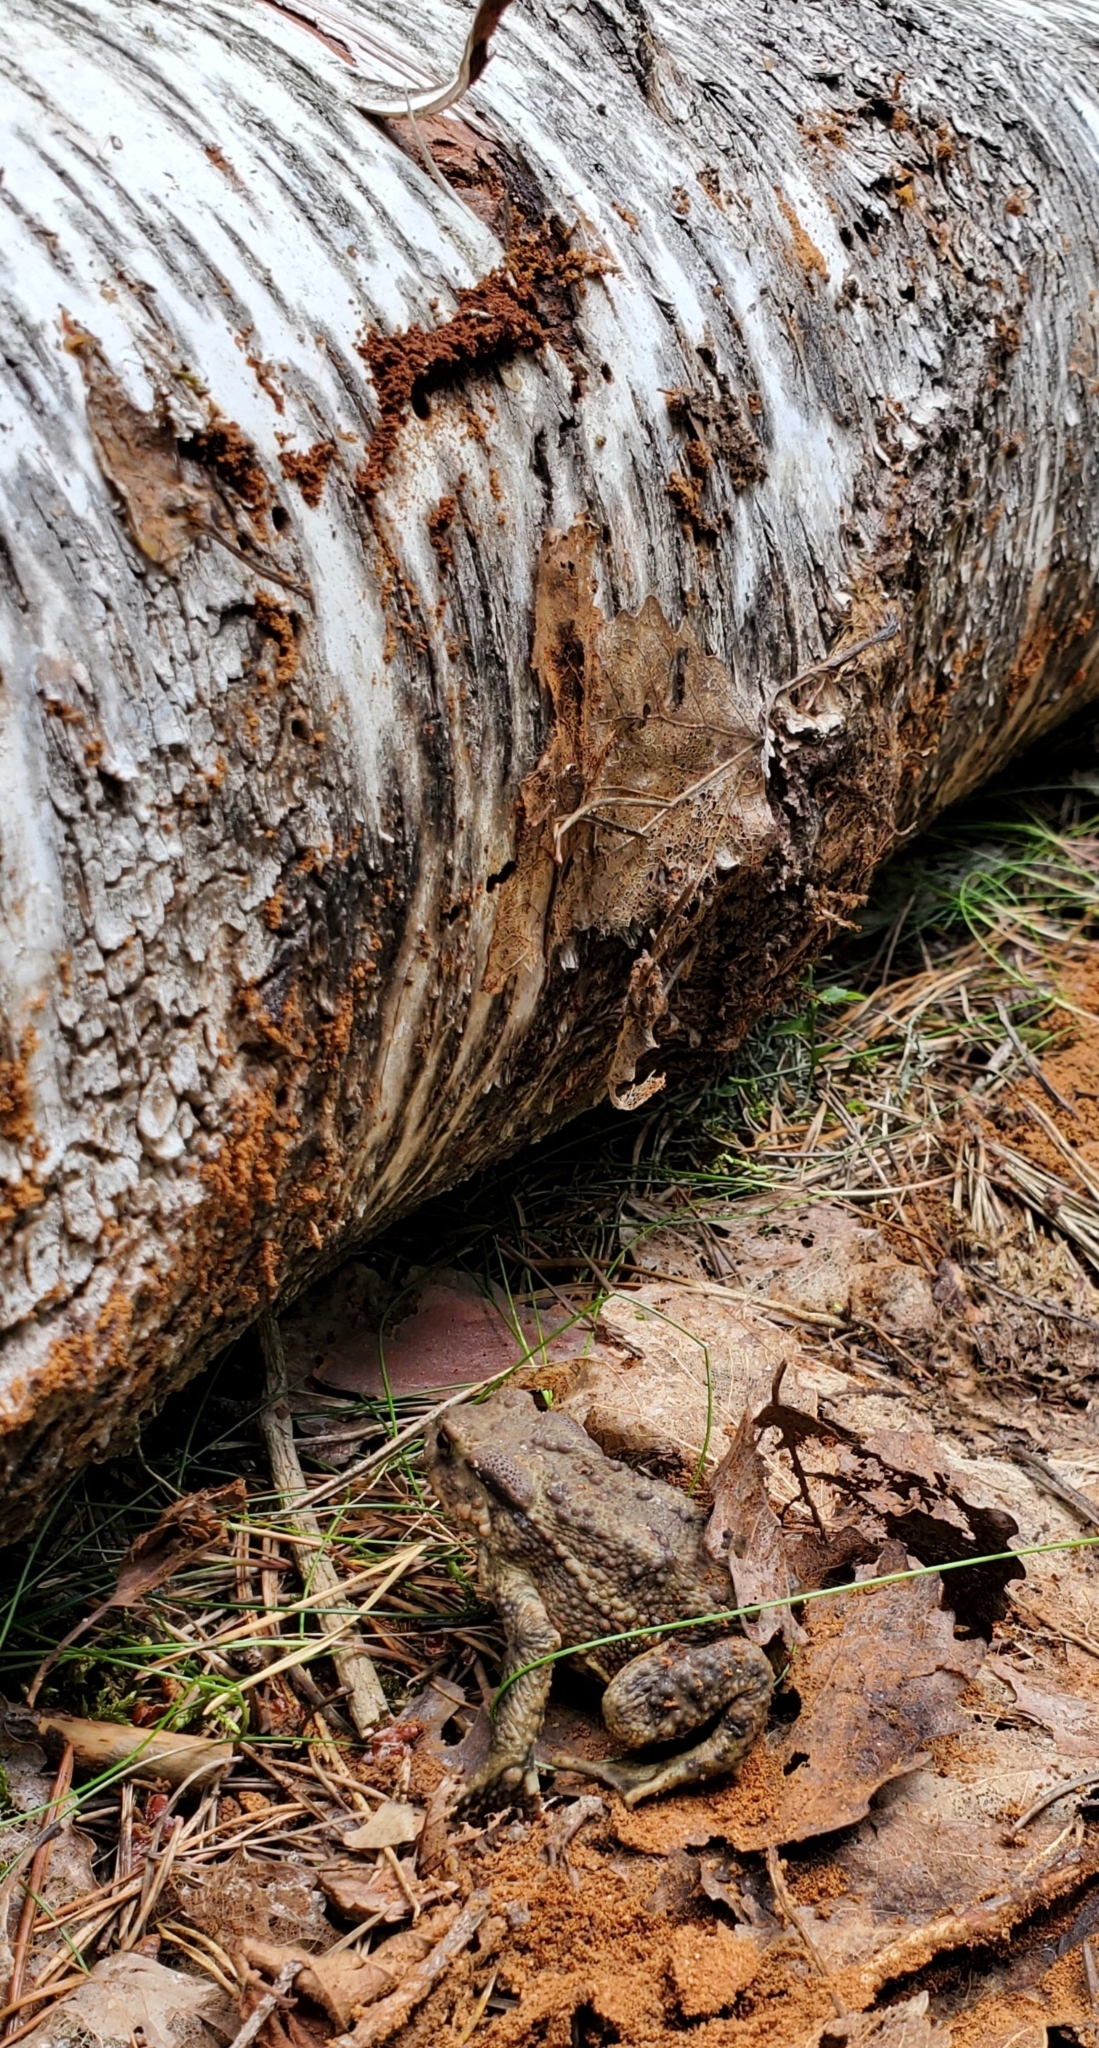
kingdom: Animalia
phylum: Chordata
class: Amphibia
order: Anura
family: Bufonidae
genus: Bufo
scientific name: Bufo bufo
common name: Common toad
